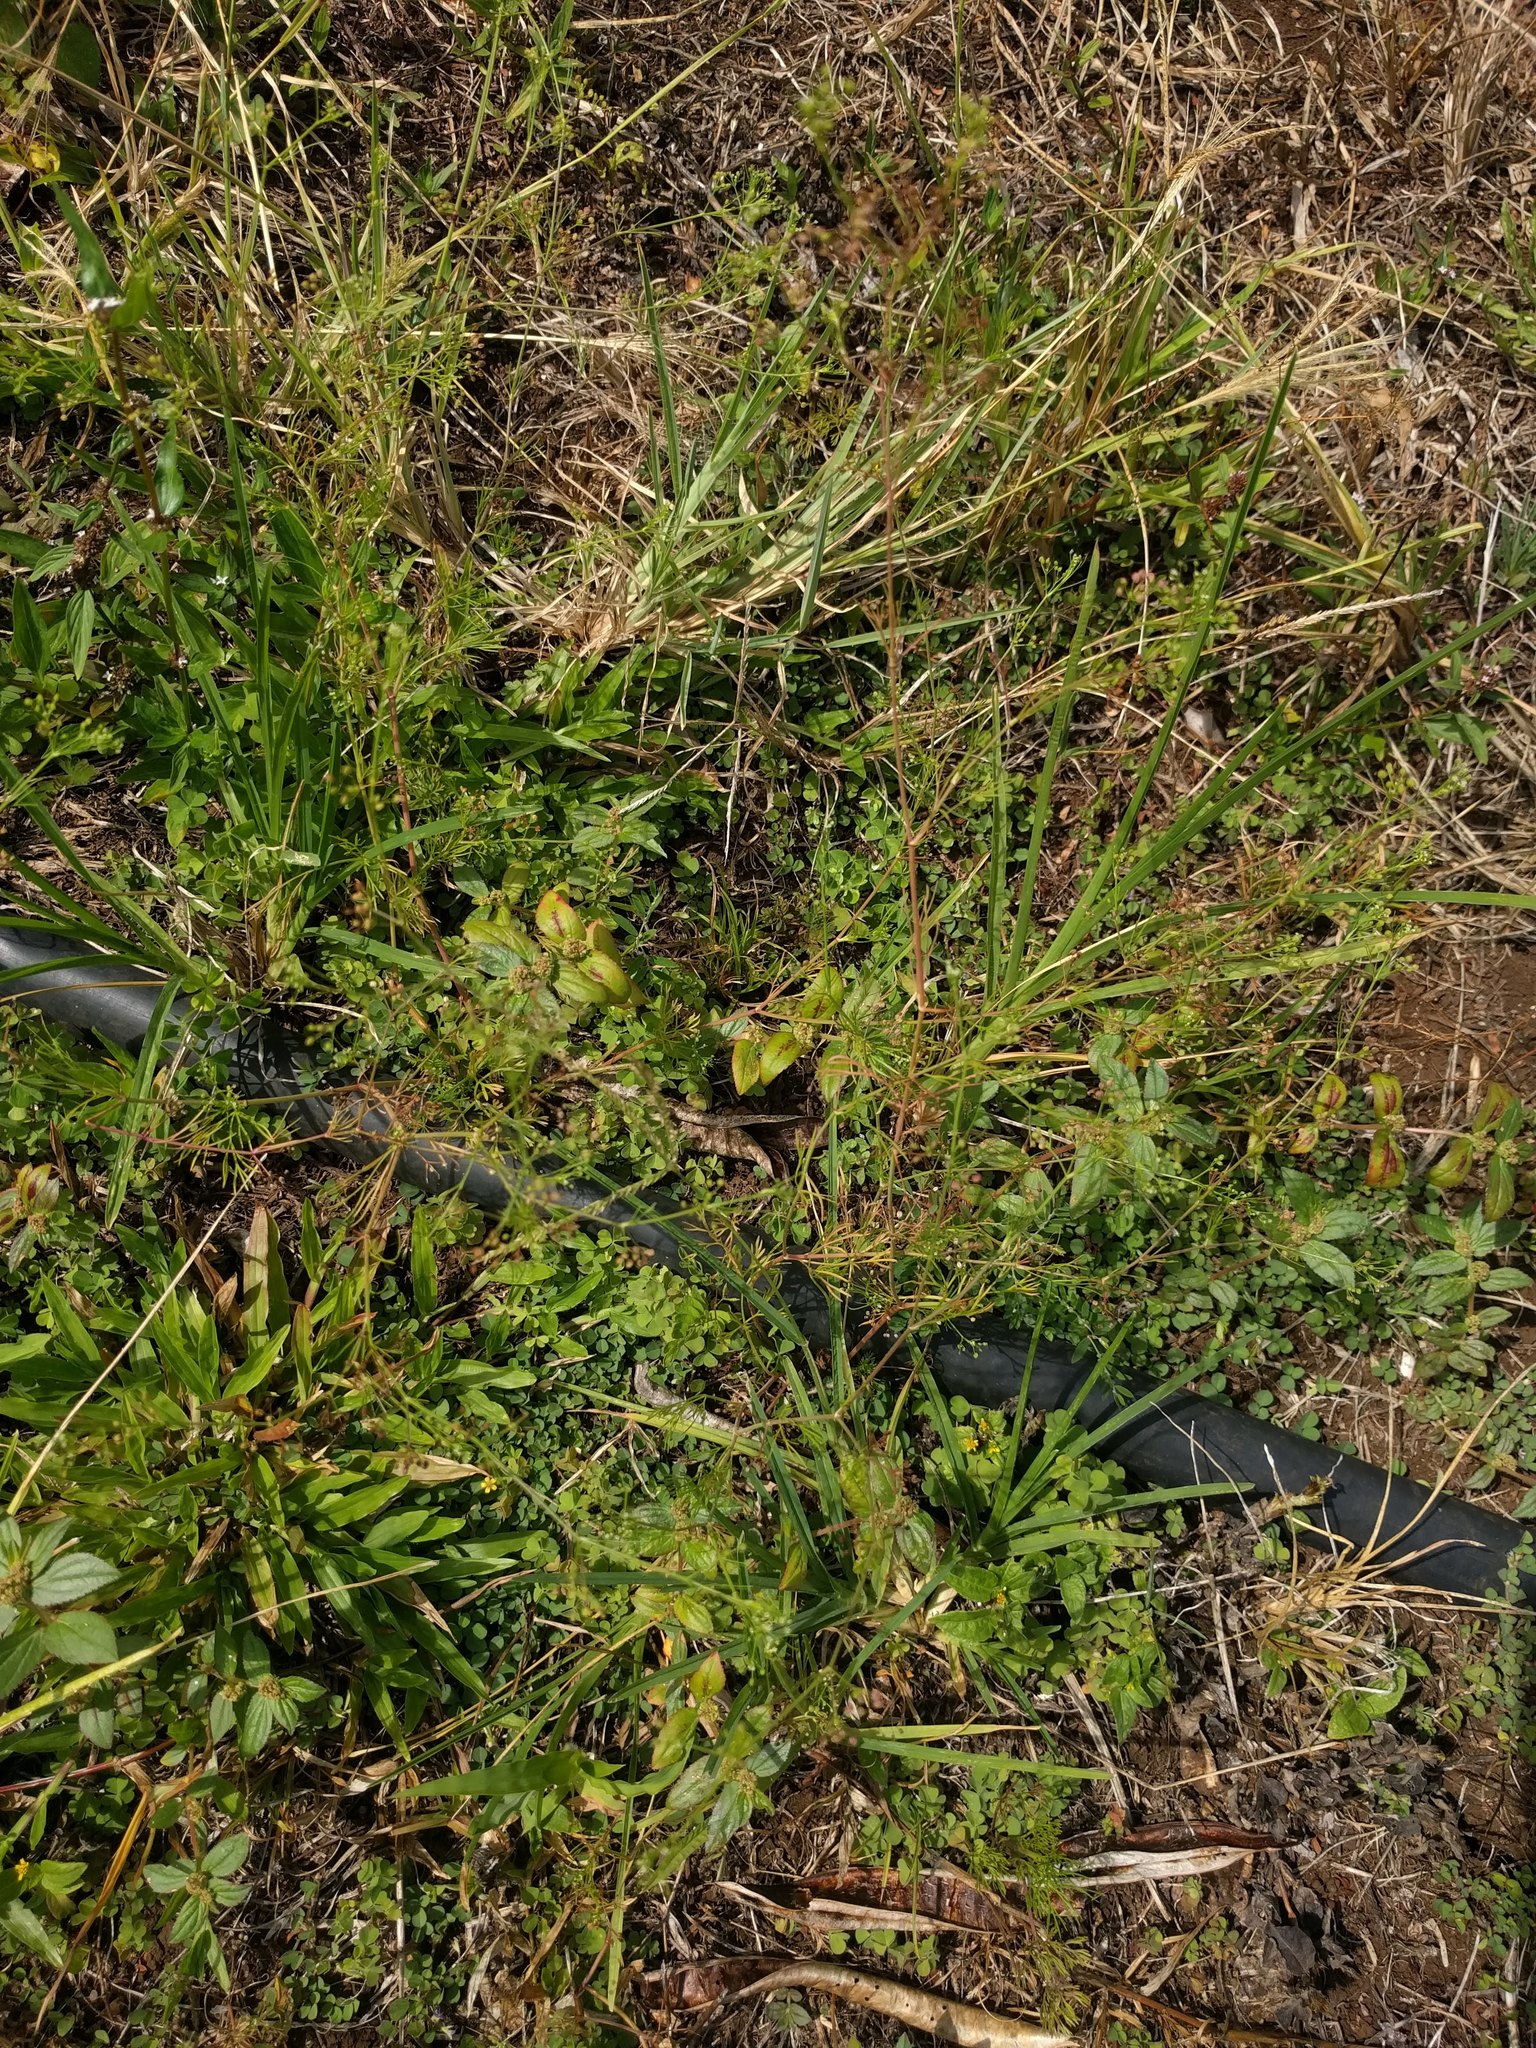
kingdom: Plantae
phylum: Tracheophyta
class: Magnoliopsida
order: Malpighiales
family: Euphorbiaceae
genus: Euphorbia
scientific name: Euphorbia hirta
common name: Pillpod sandmat
